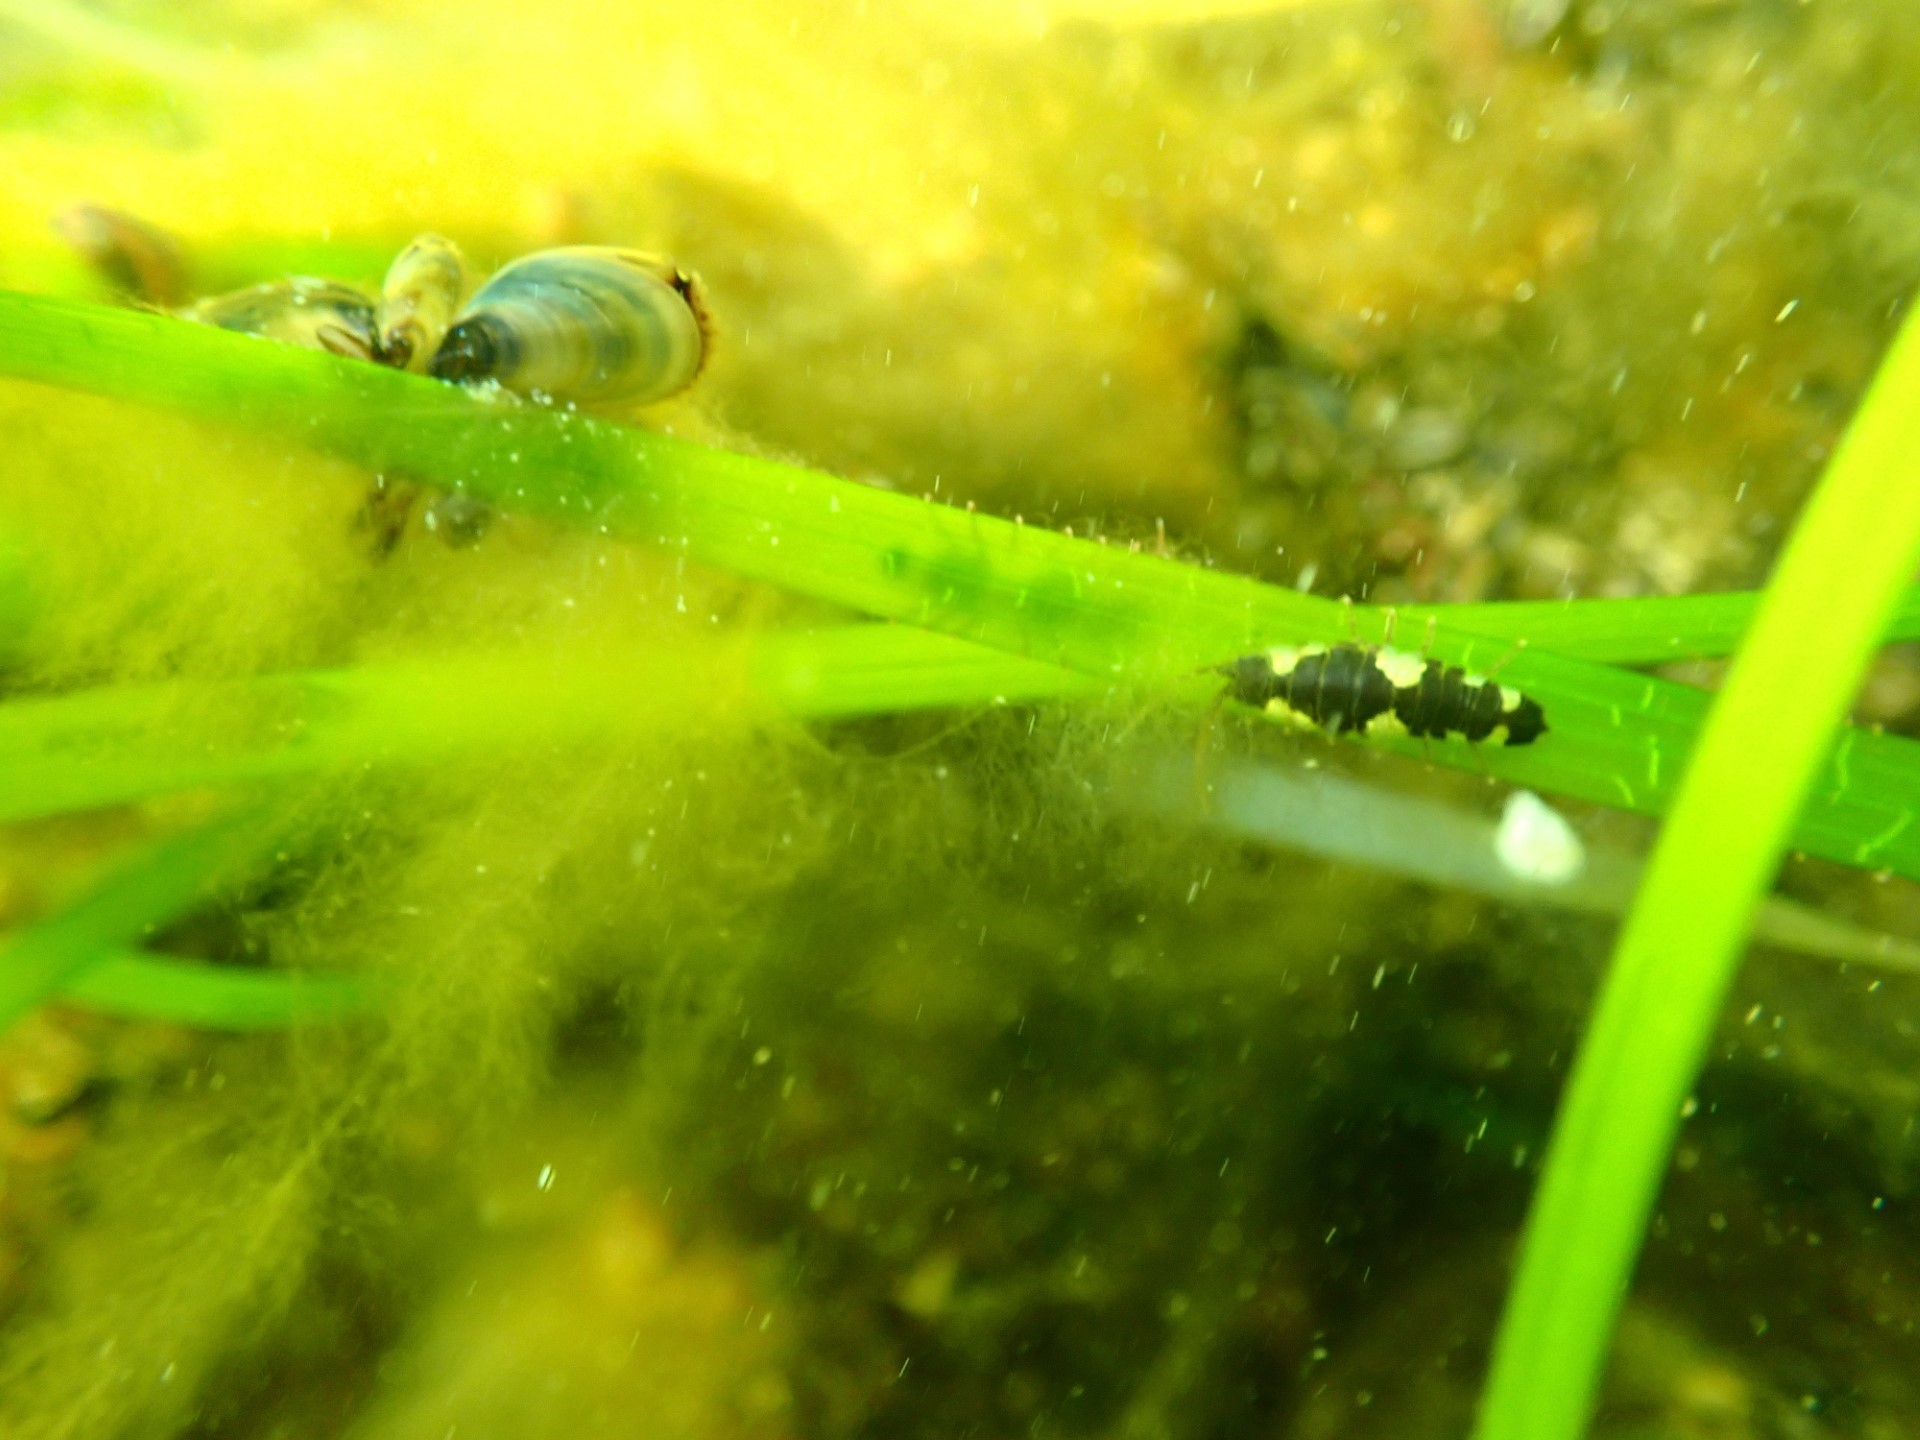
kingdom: Animalia
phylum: Arthropoda
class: Malacostraca
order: Isopoda
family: Idoteidae
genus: Idotea
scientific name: Idotea balthica
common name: Baltic isopod
